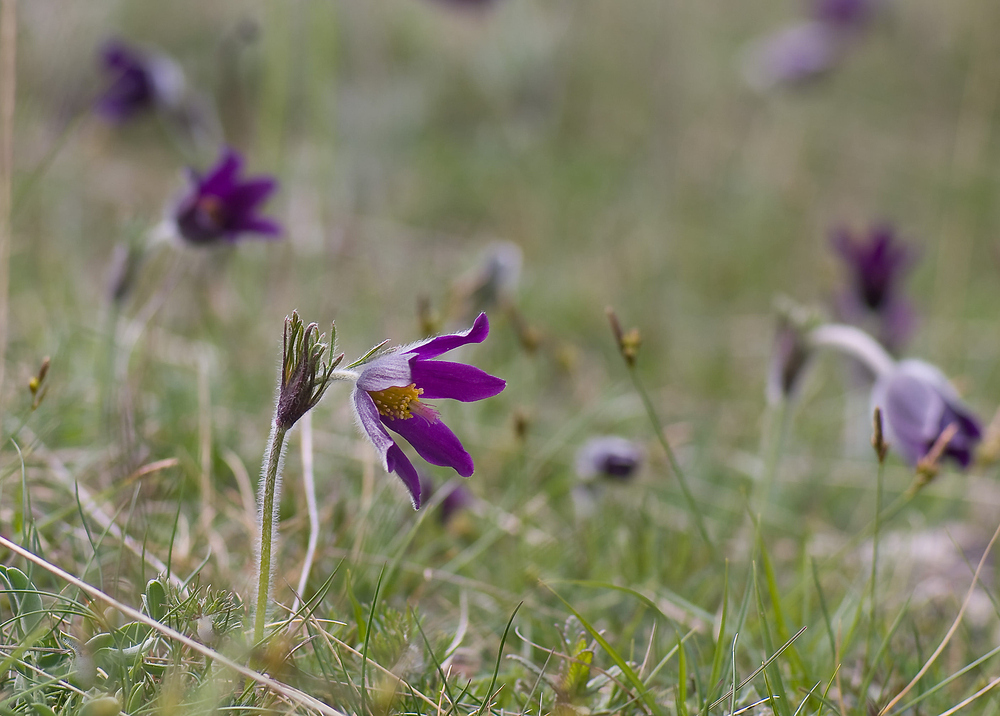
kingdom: Plantae
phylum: Tracheophyta
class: Magnoliopsida
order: Ranunculales
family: Ranunculaceae
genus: Pulsatilla
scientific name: Pulsatilla vulgaris
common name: Pasqueflower
